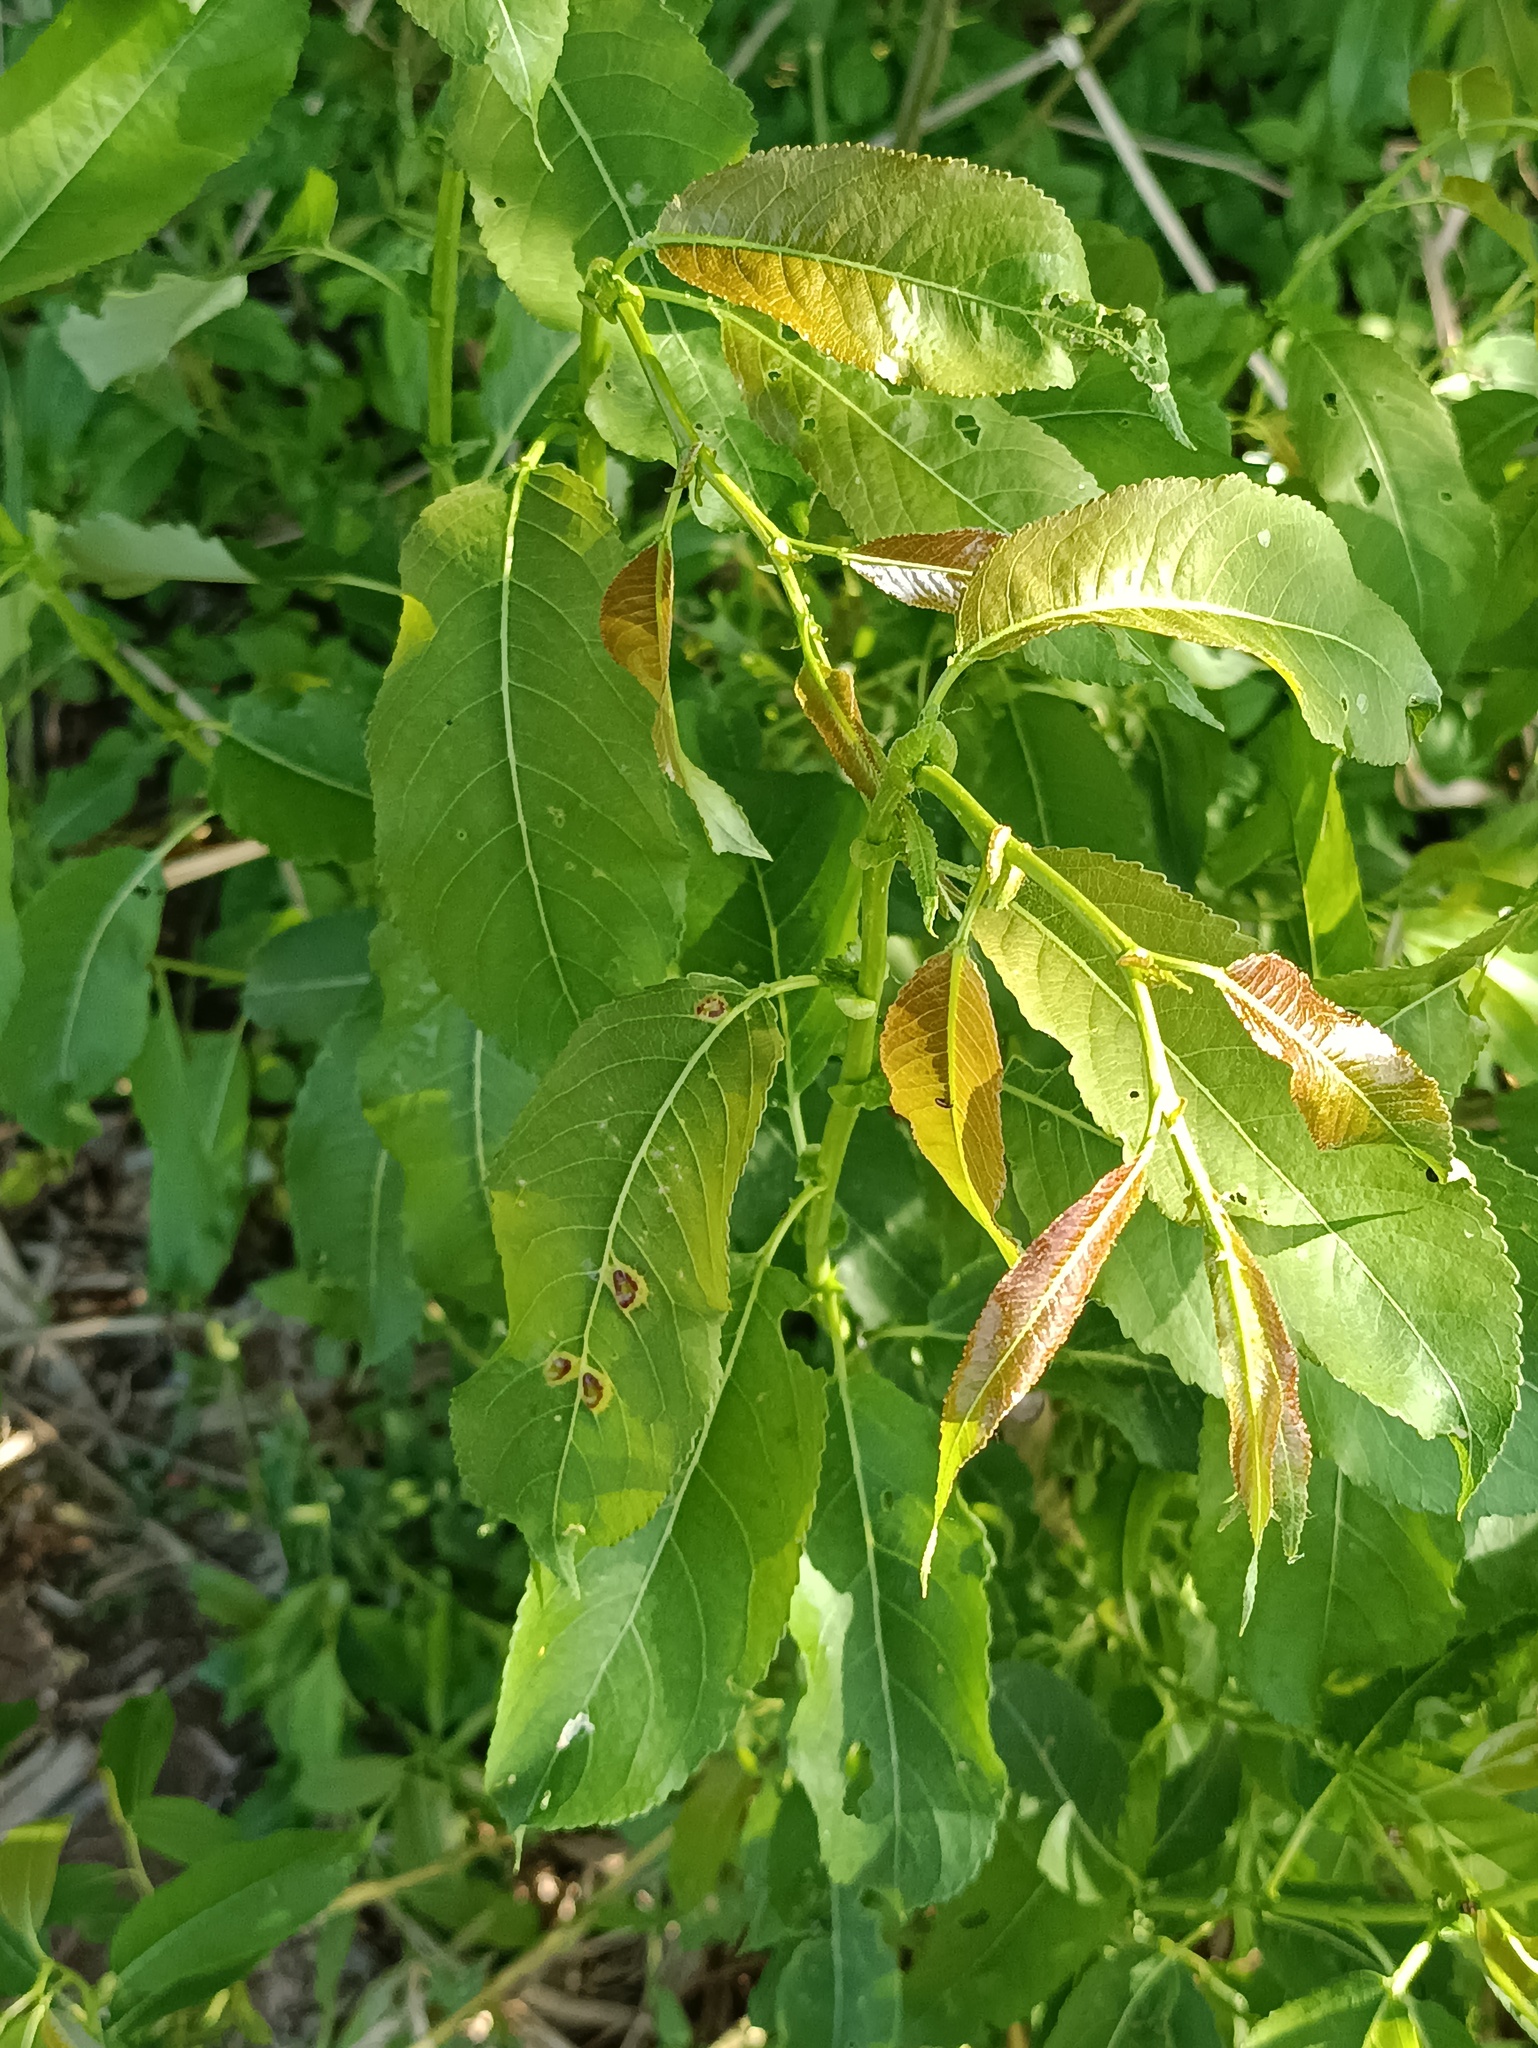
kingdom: Plantae
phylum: Tracheophyta
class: Magnoliopsida
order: Malpighiales
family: Salicaceae
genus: Salix
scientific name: Salix triandra
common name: Almond willow
